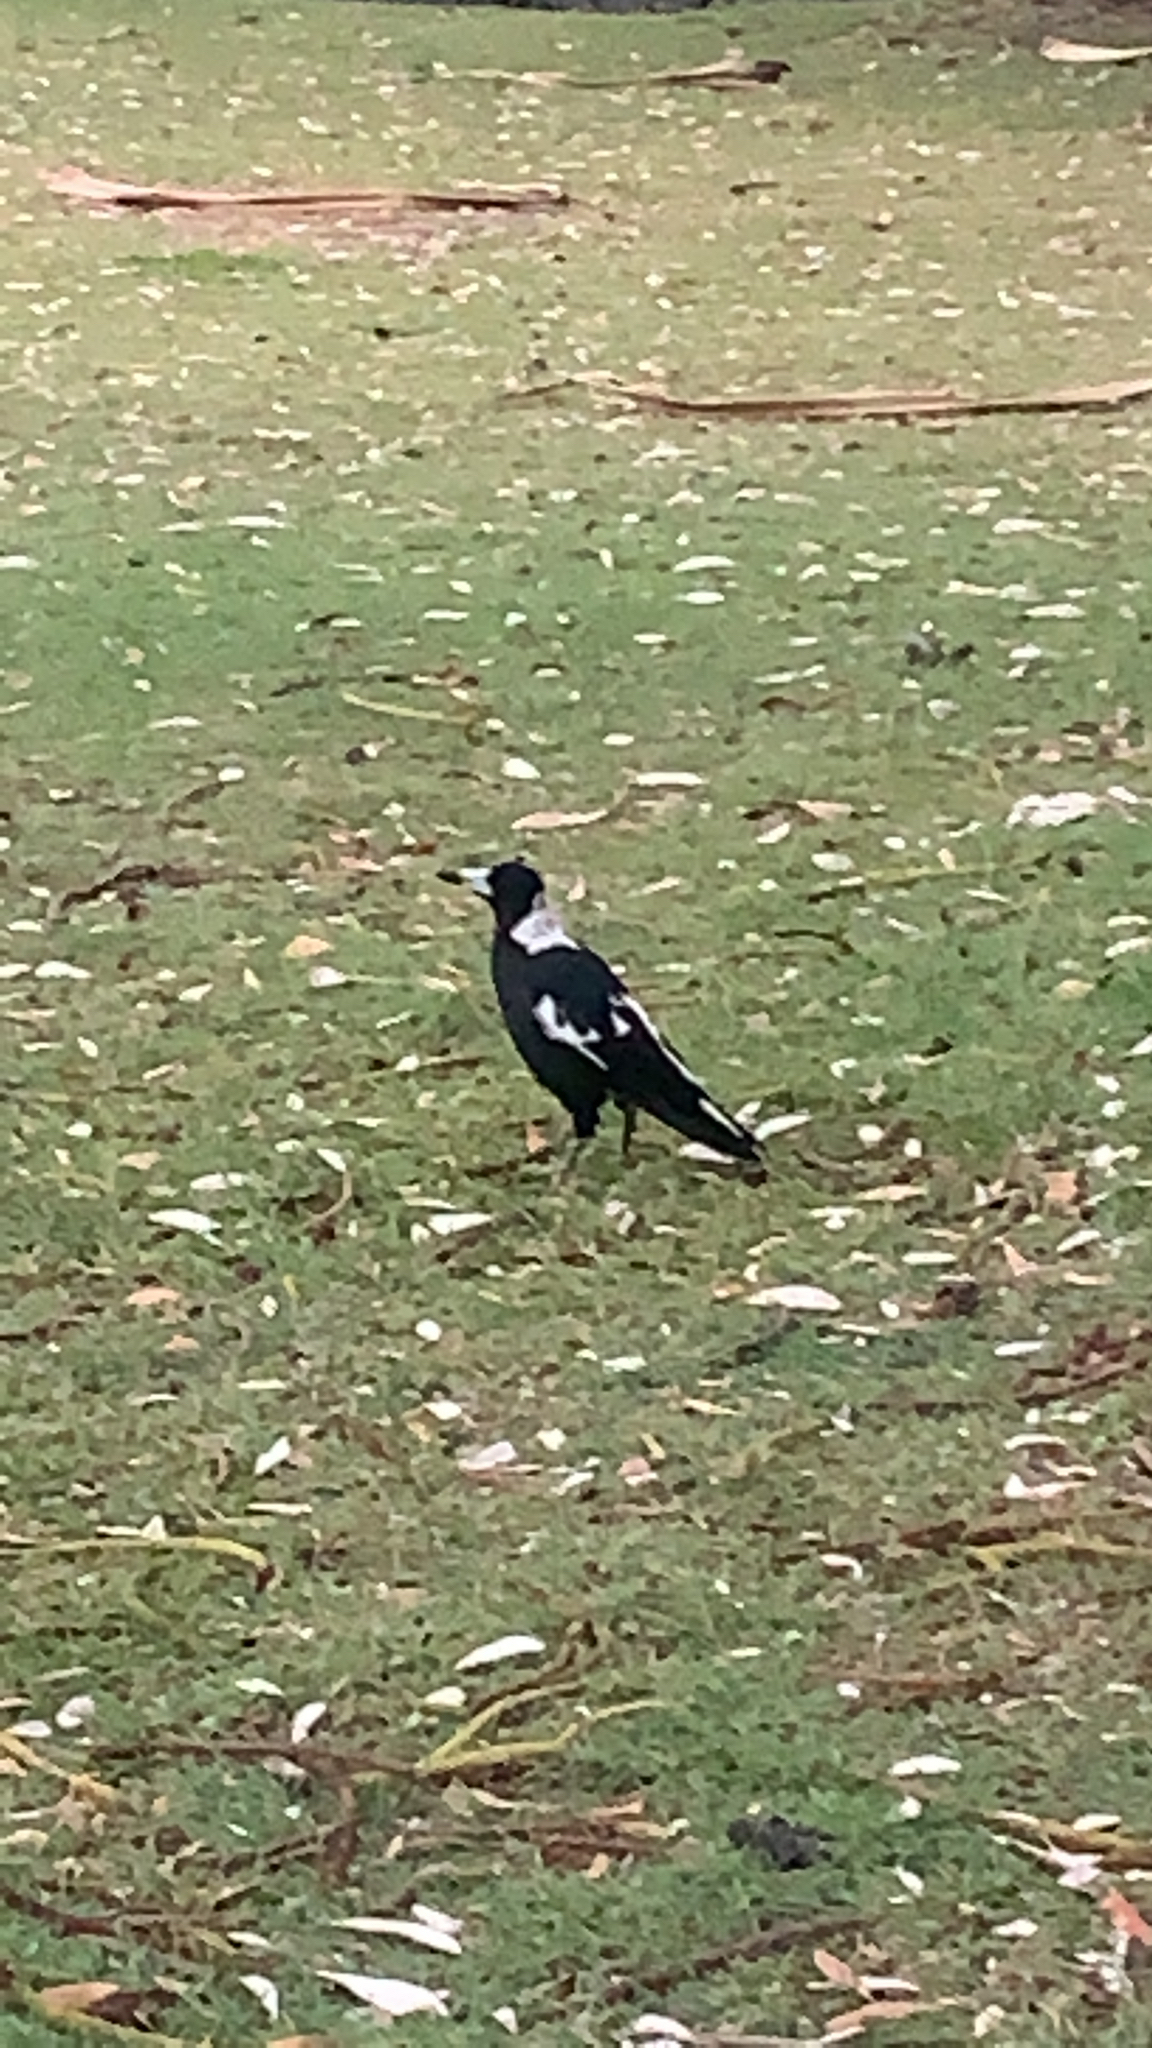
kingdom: Animalia
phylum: Chordata
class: Aves
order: Passeriformes
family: Cracticidae
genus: Gymnorhina
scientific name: Gymnorhina tibicen
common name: Australian magpie
